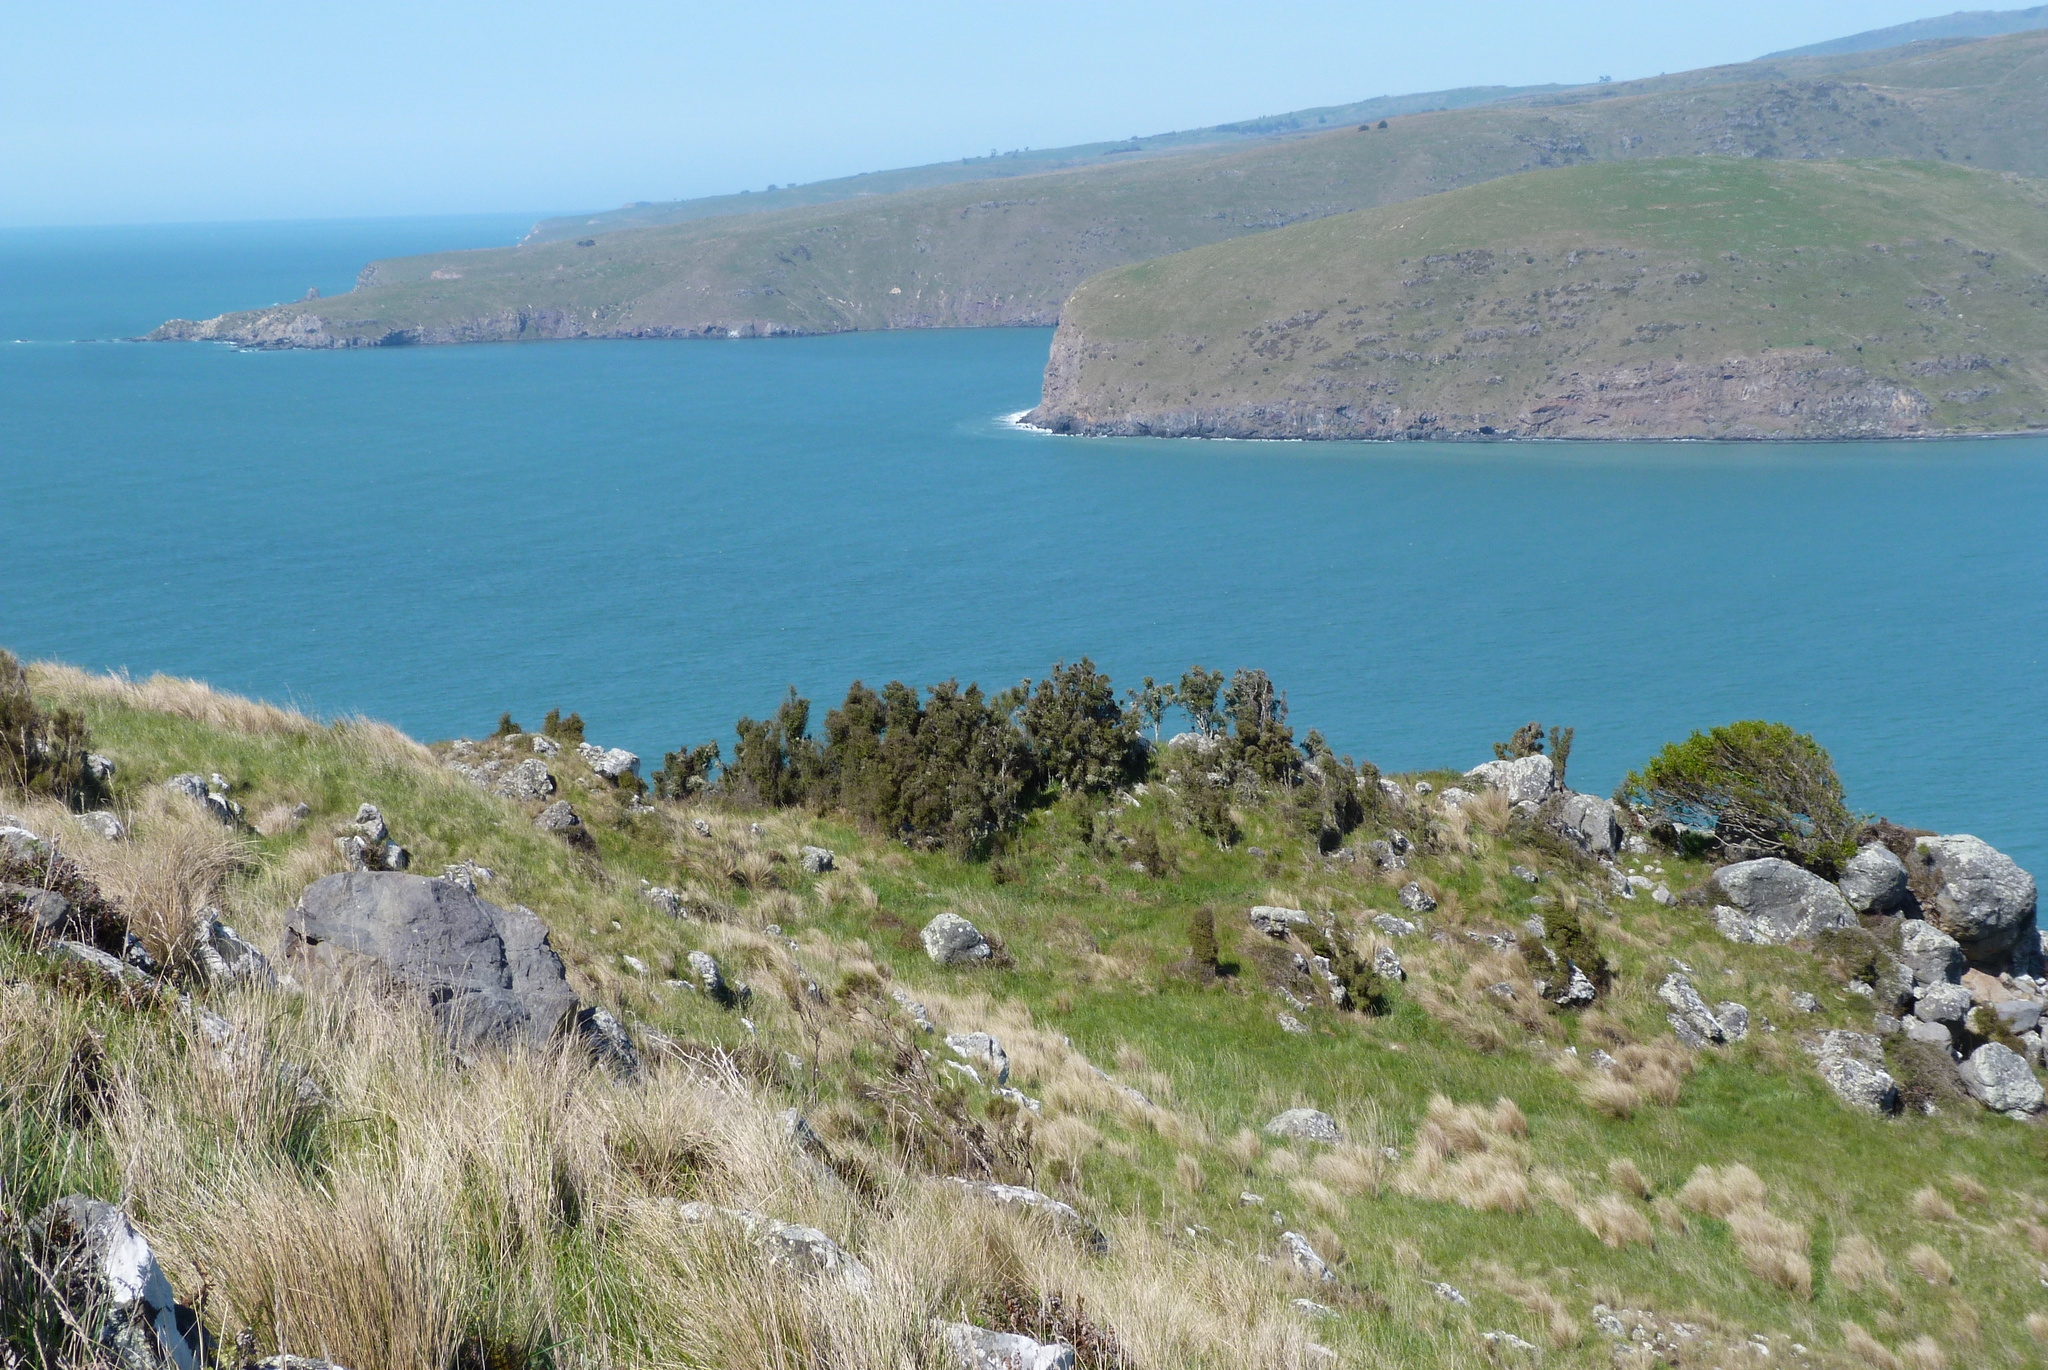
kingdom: Plantae
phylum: Tracheophyta
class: Magnoliopsida
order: Gentianales
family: Rubiaceae
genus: Coprosma
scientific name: Coprosma crassifolia
